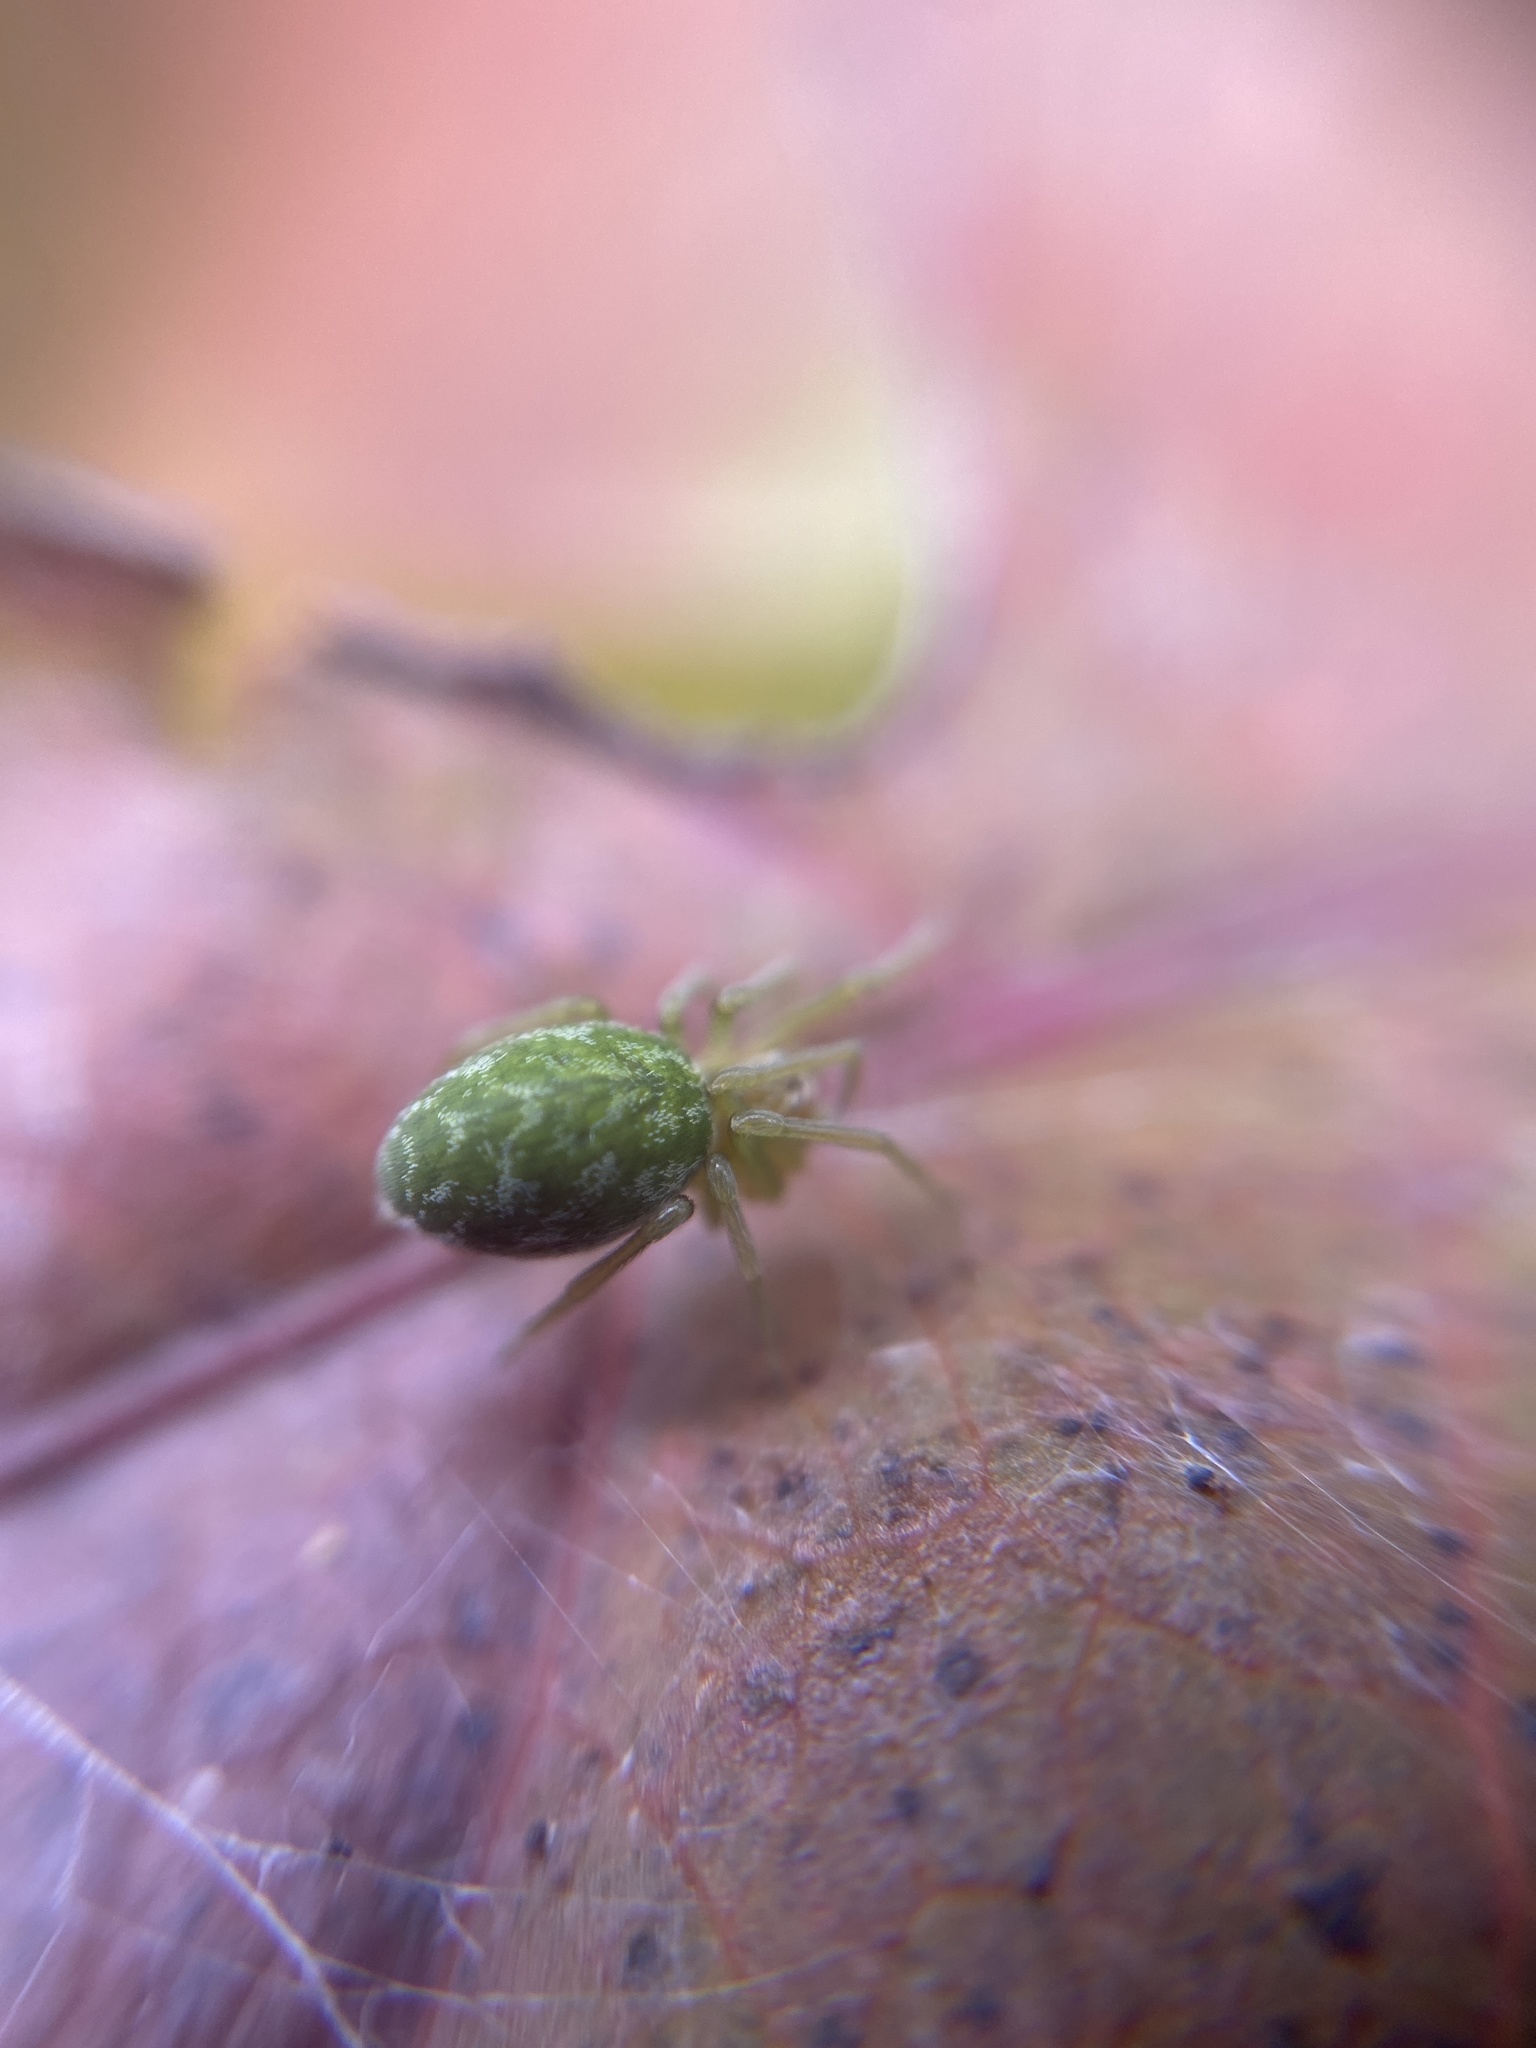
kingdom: Animalia
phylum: Arthropoda
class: Arachnida
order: Araneae
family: Dictynidae
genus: Nigma
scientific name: Nigma walckenaeri
